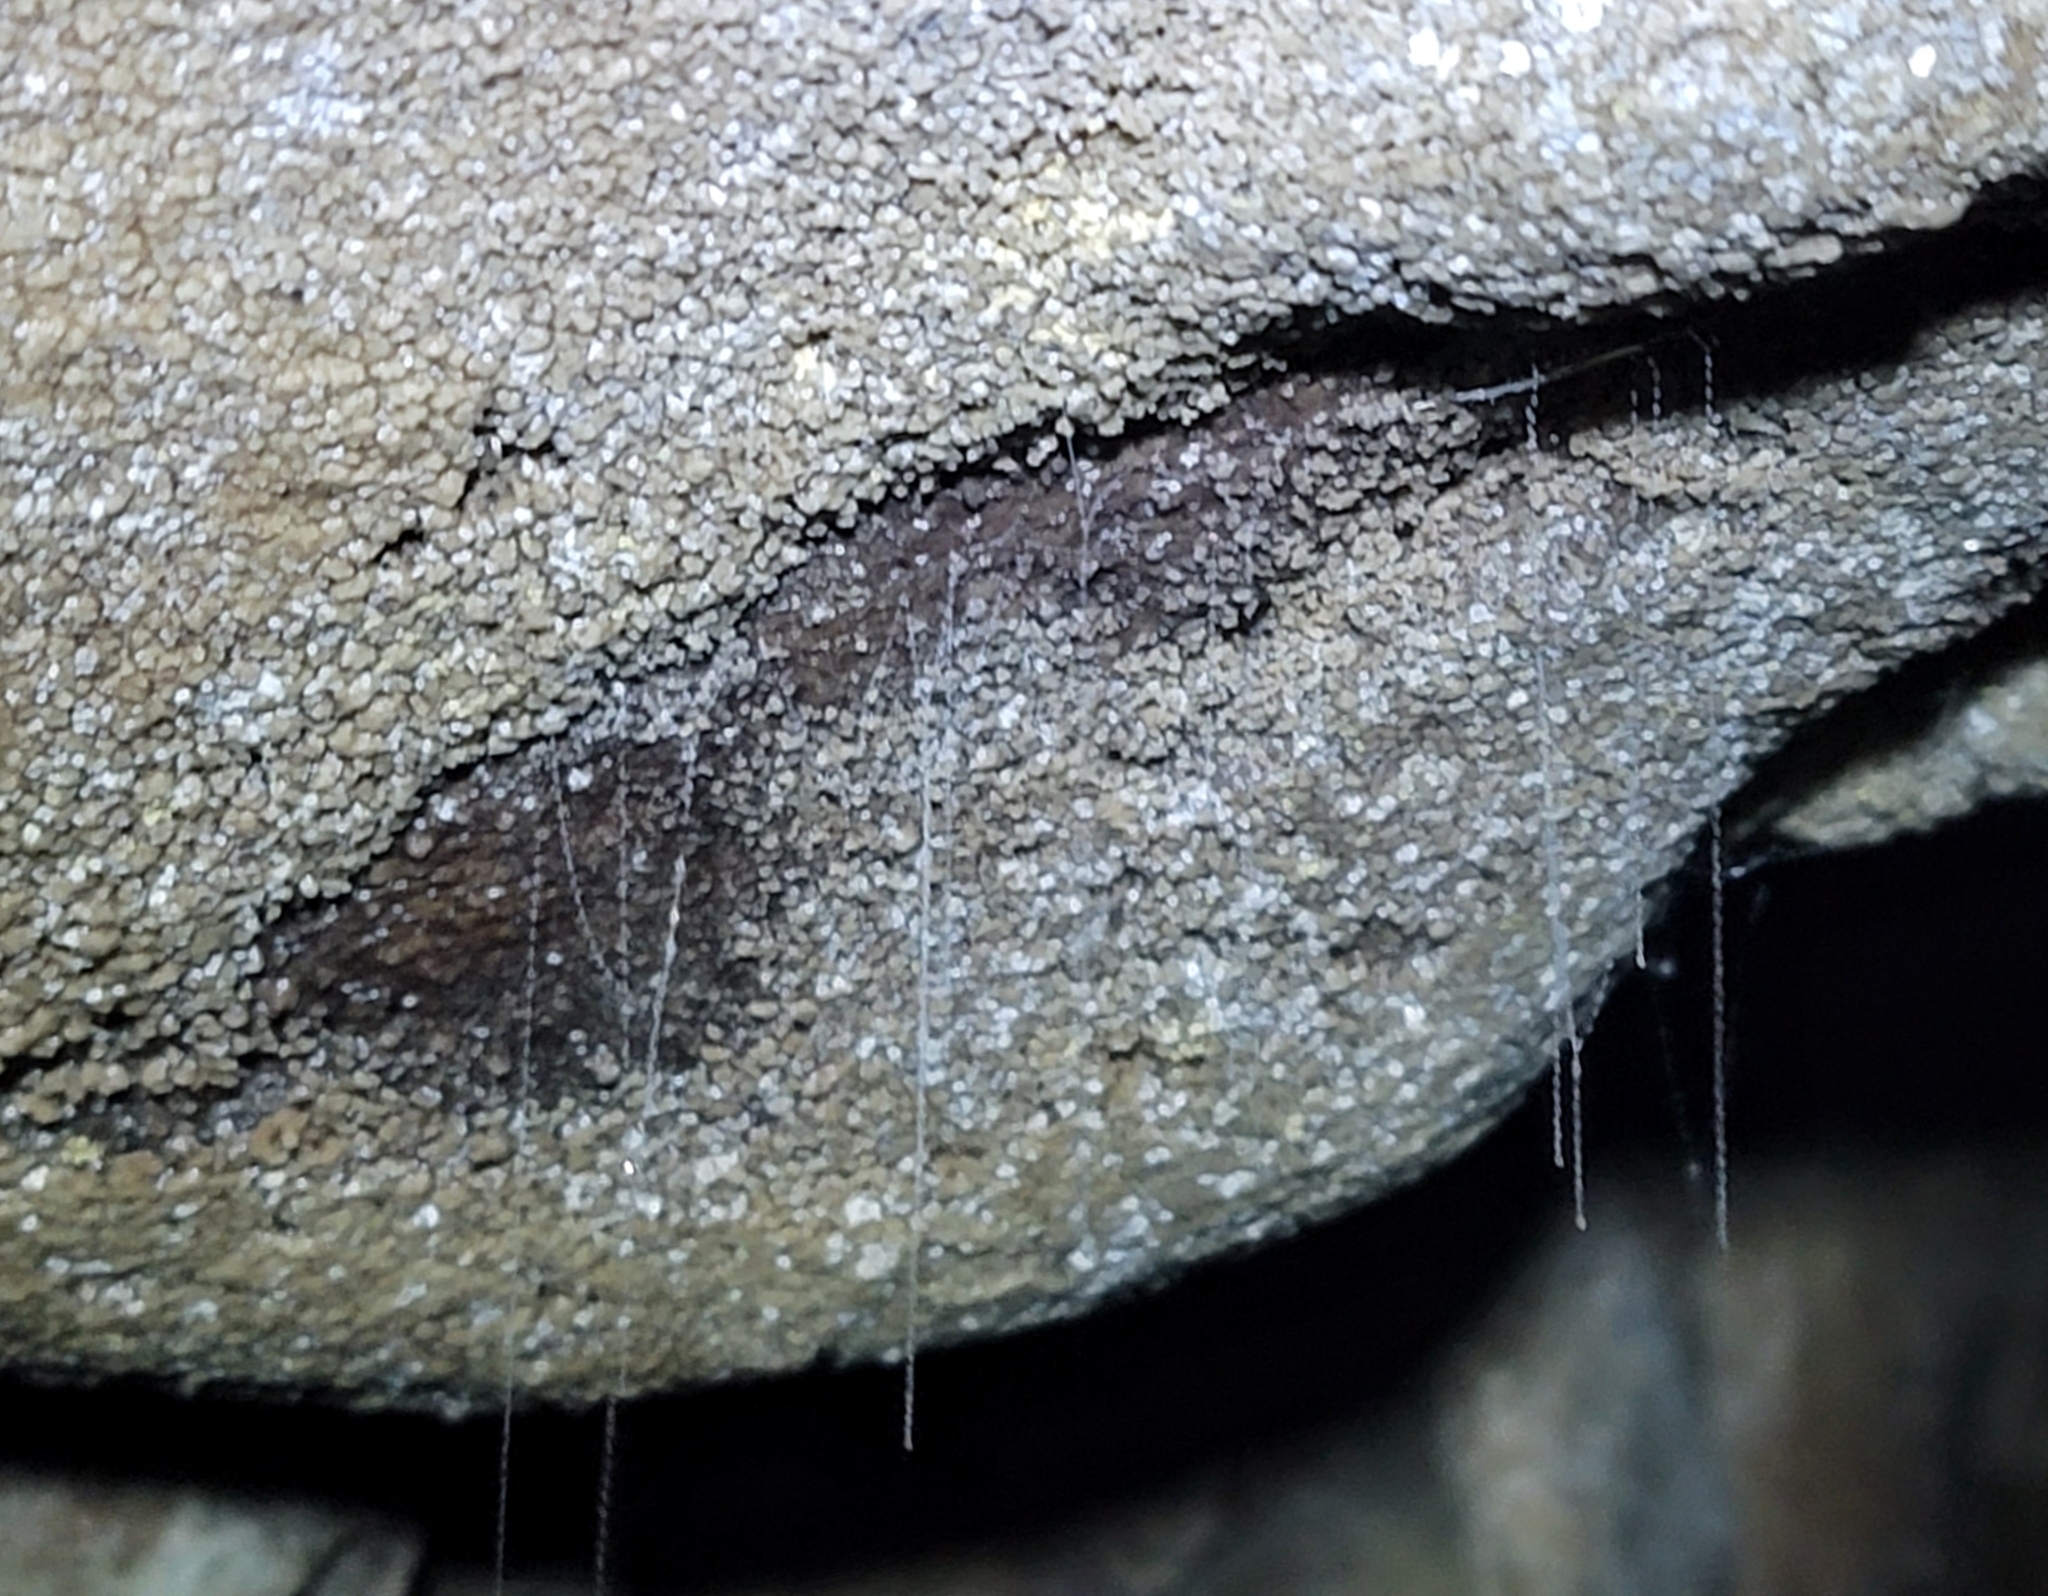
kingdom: Animalia
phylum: Arthropoda
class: Insecta
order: Diptera
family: Keroplatidae
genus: Arachnocampa
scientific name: Arachnocampa luminosa
